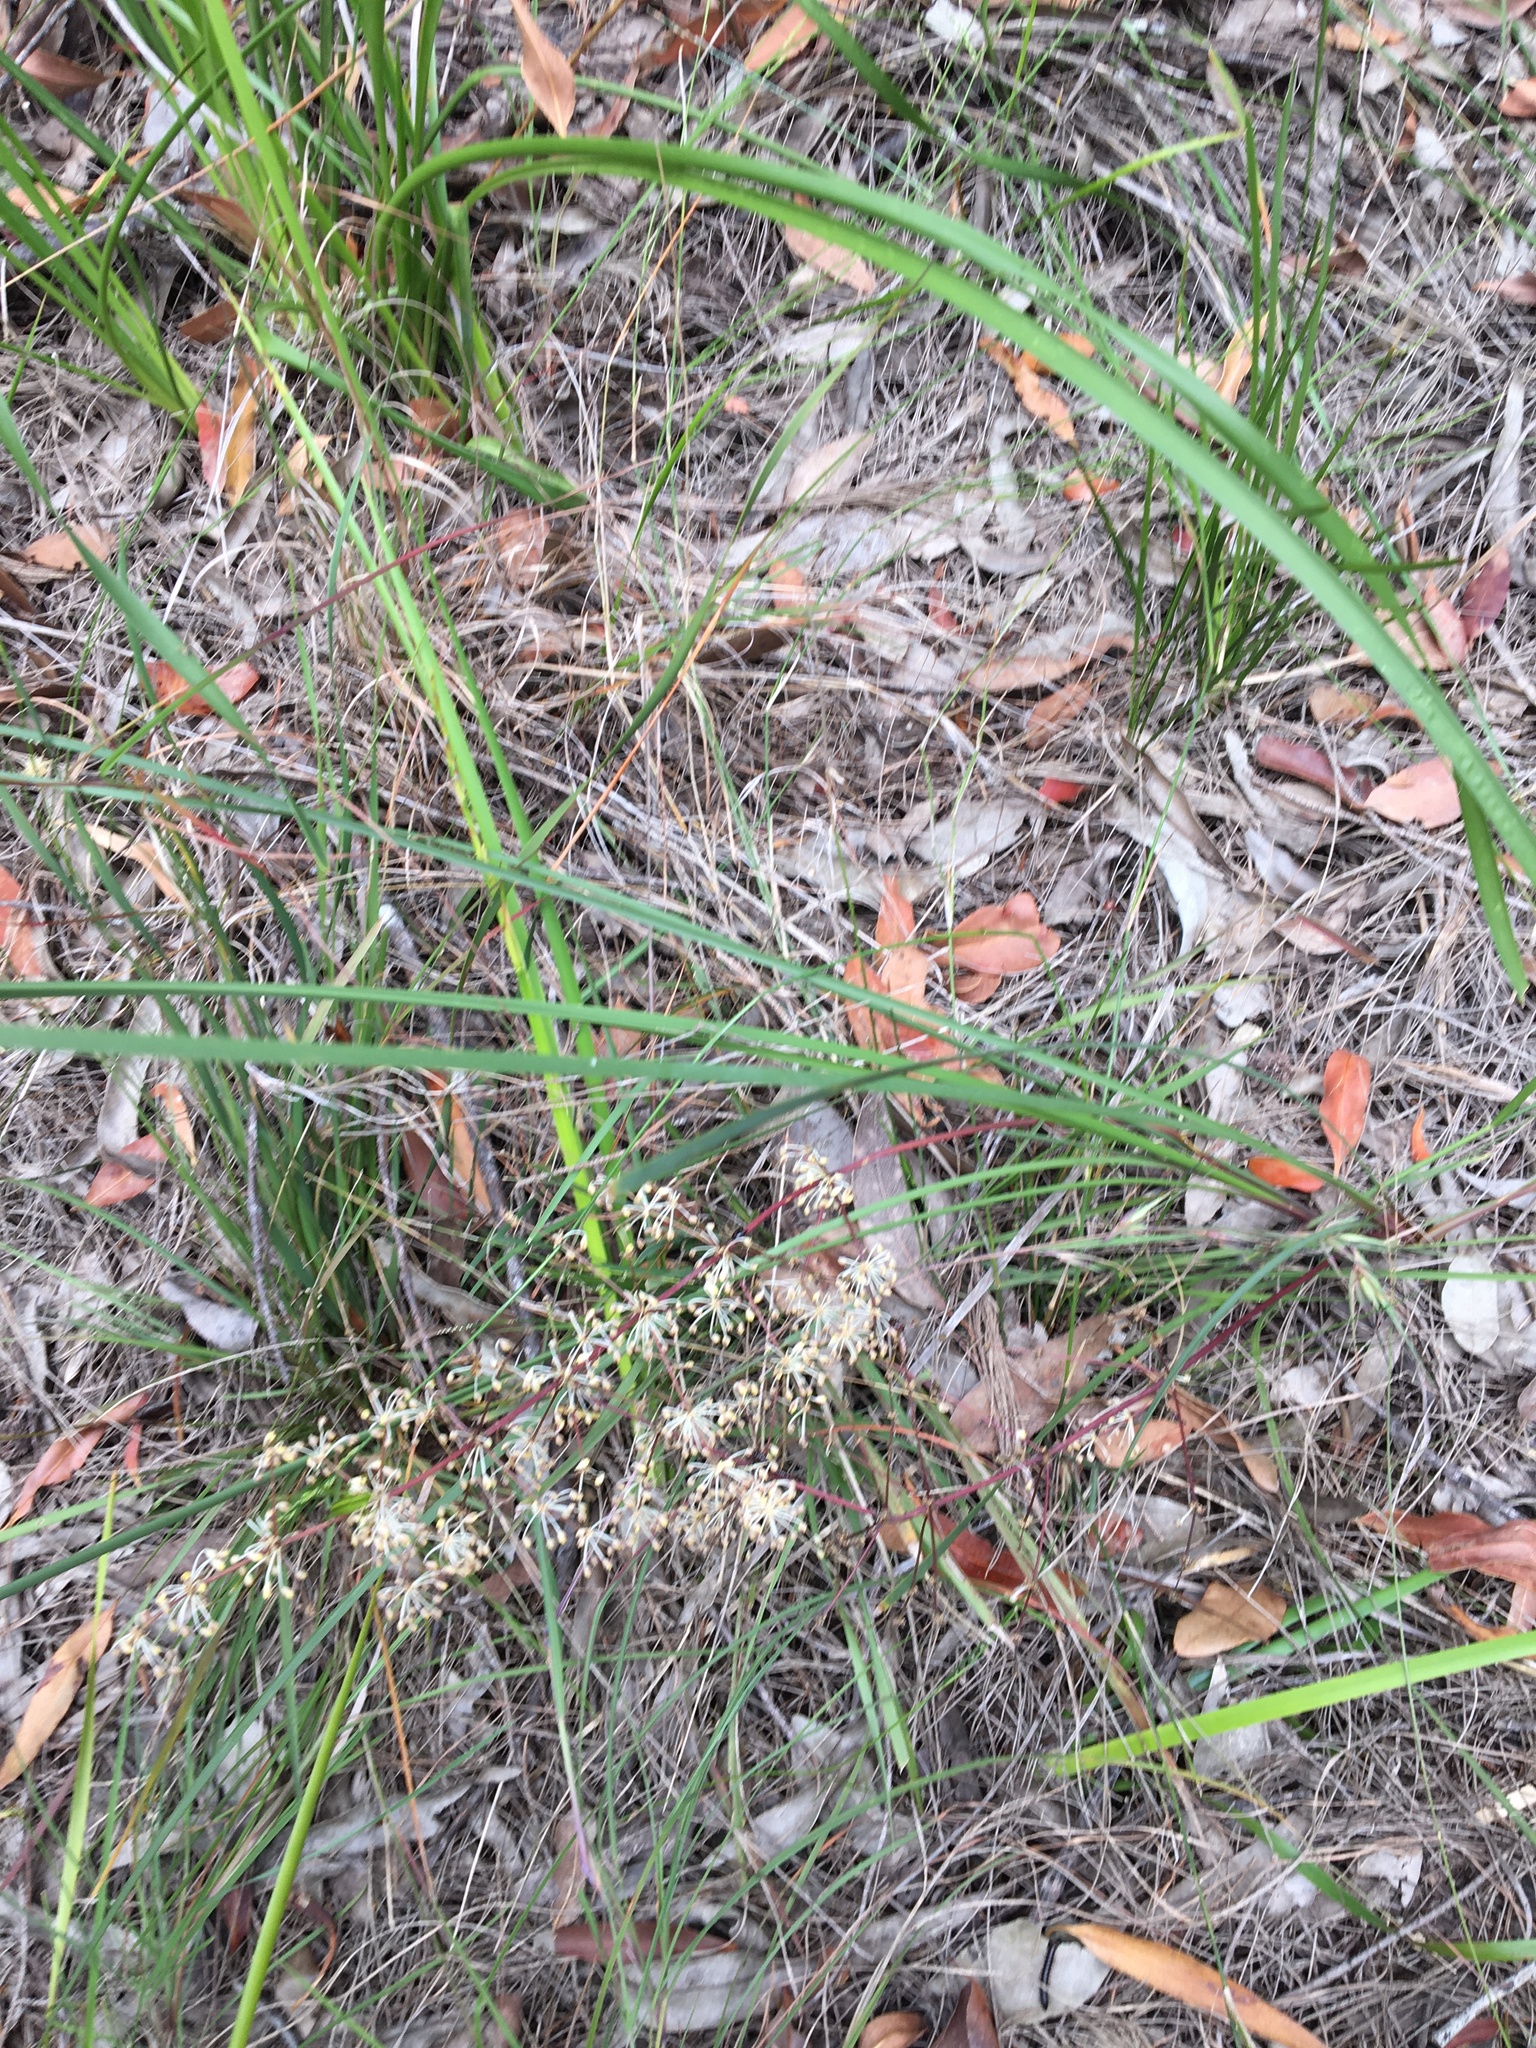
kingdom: Plantae
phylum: Tracheophyta
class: Liliopsida
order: Asparagales
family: Asparagaceae
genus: Lomandra
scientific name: Lomandra multiflora
